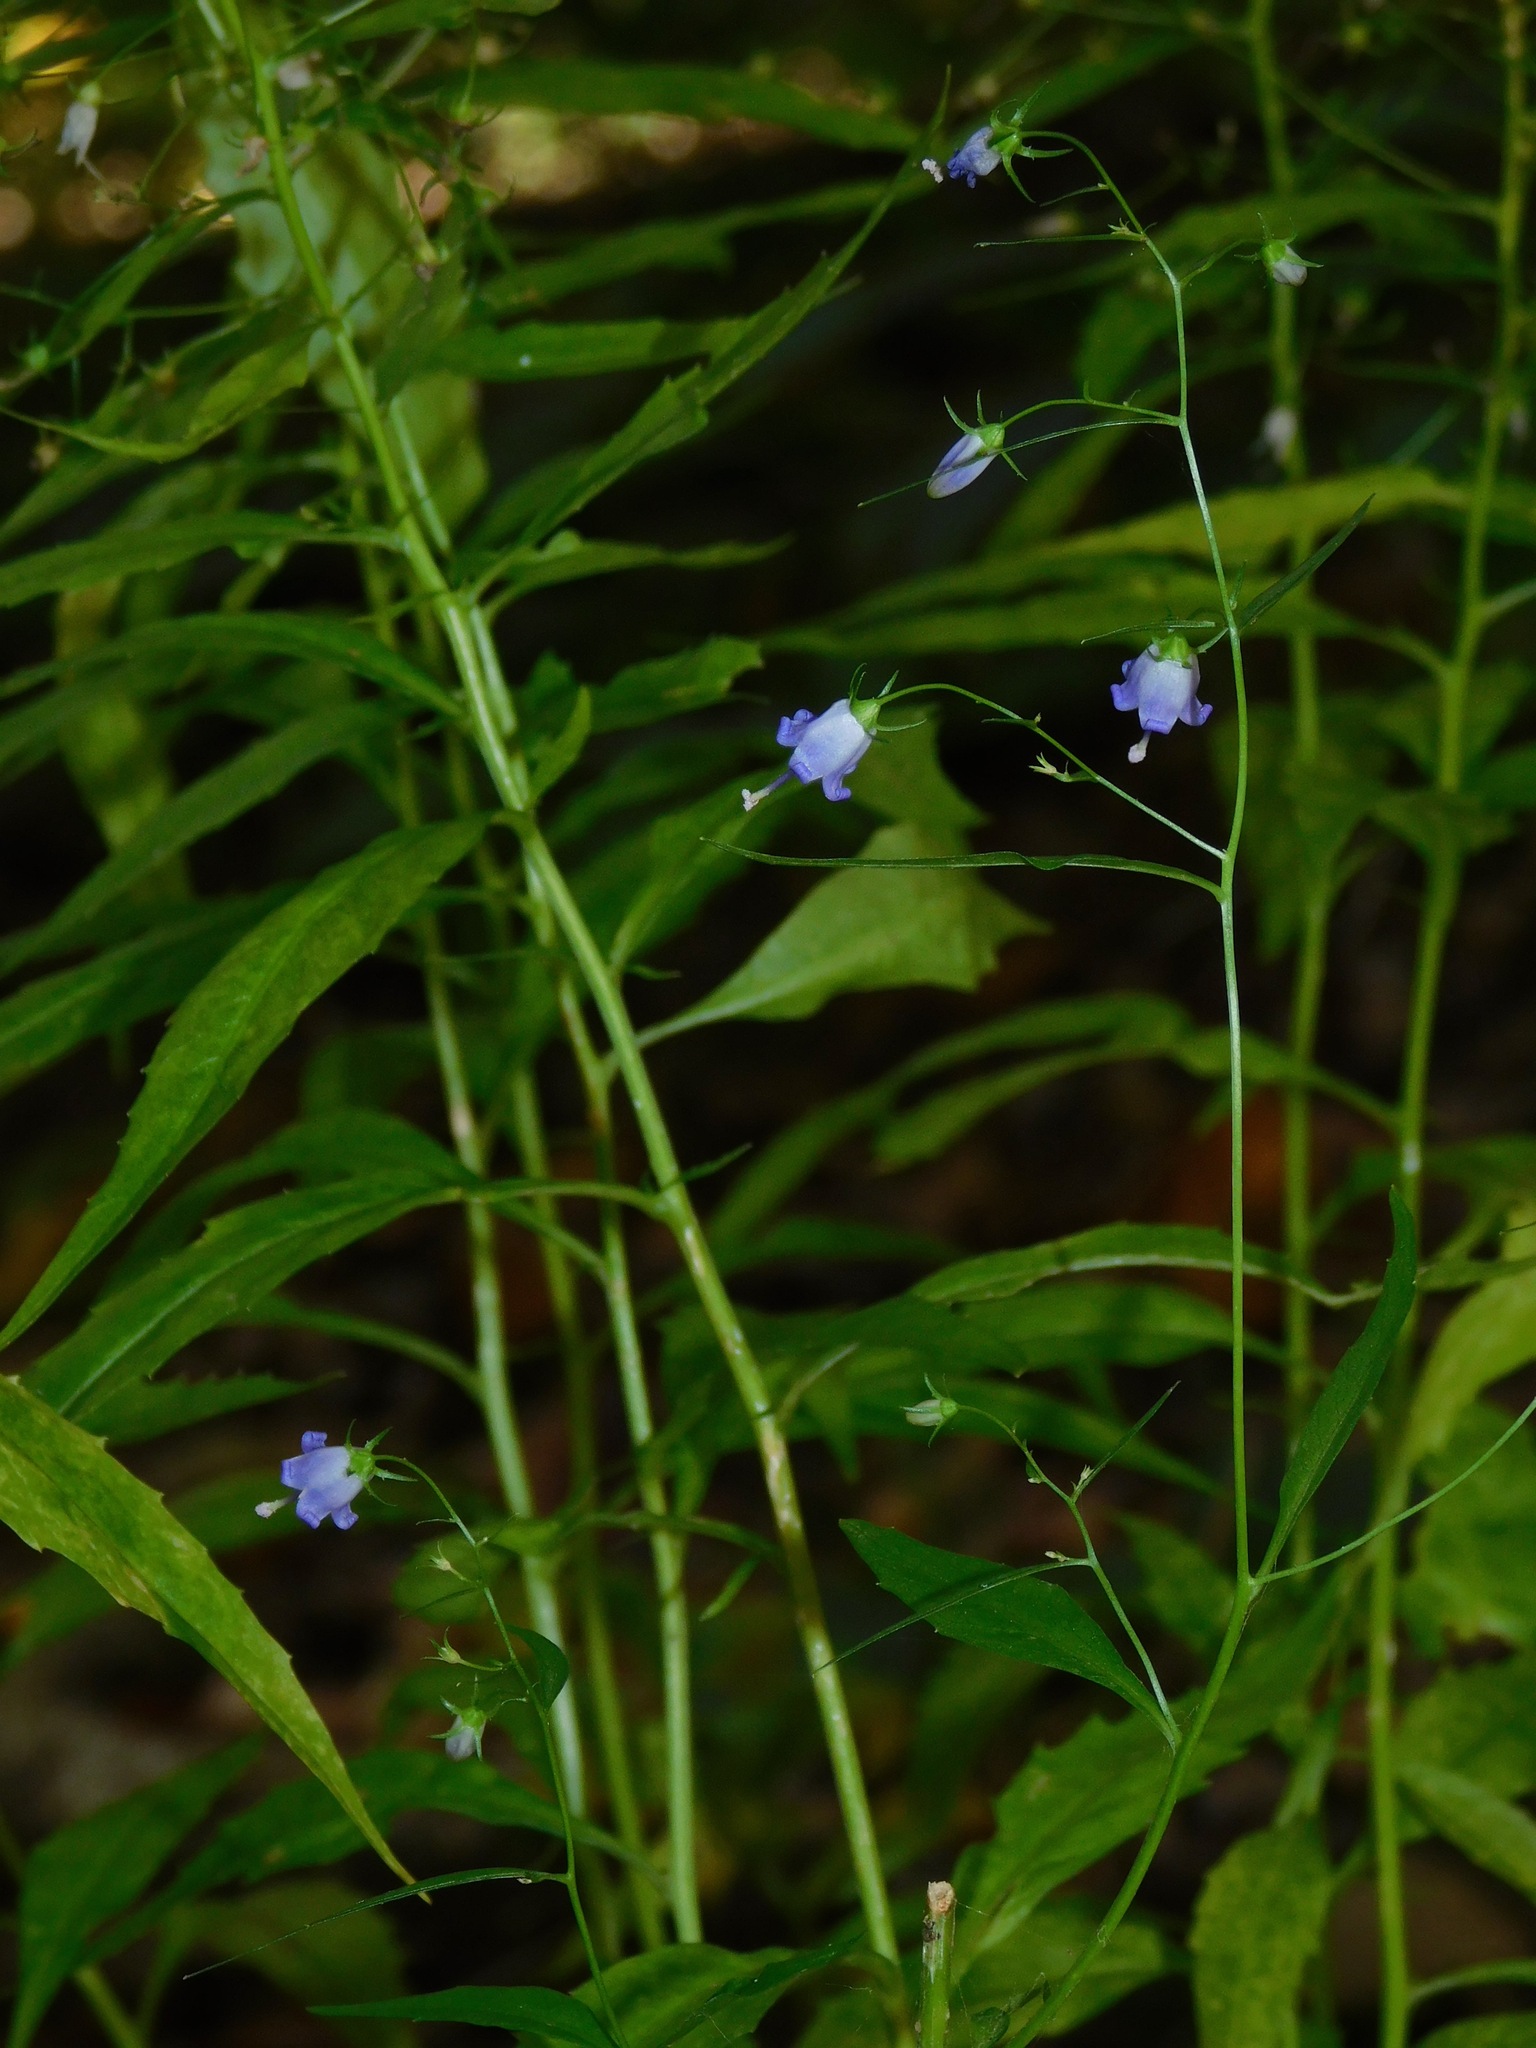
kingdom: Plantae
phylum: Tracheophyta
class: Magnoliopsida
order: Asterales
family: Campanulaceae
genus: Campanula
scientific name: Campanula divaricata
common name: Appalachian bellflower
